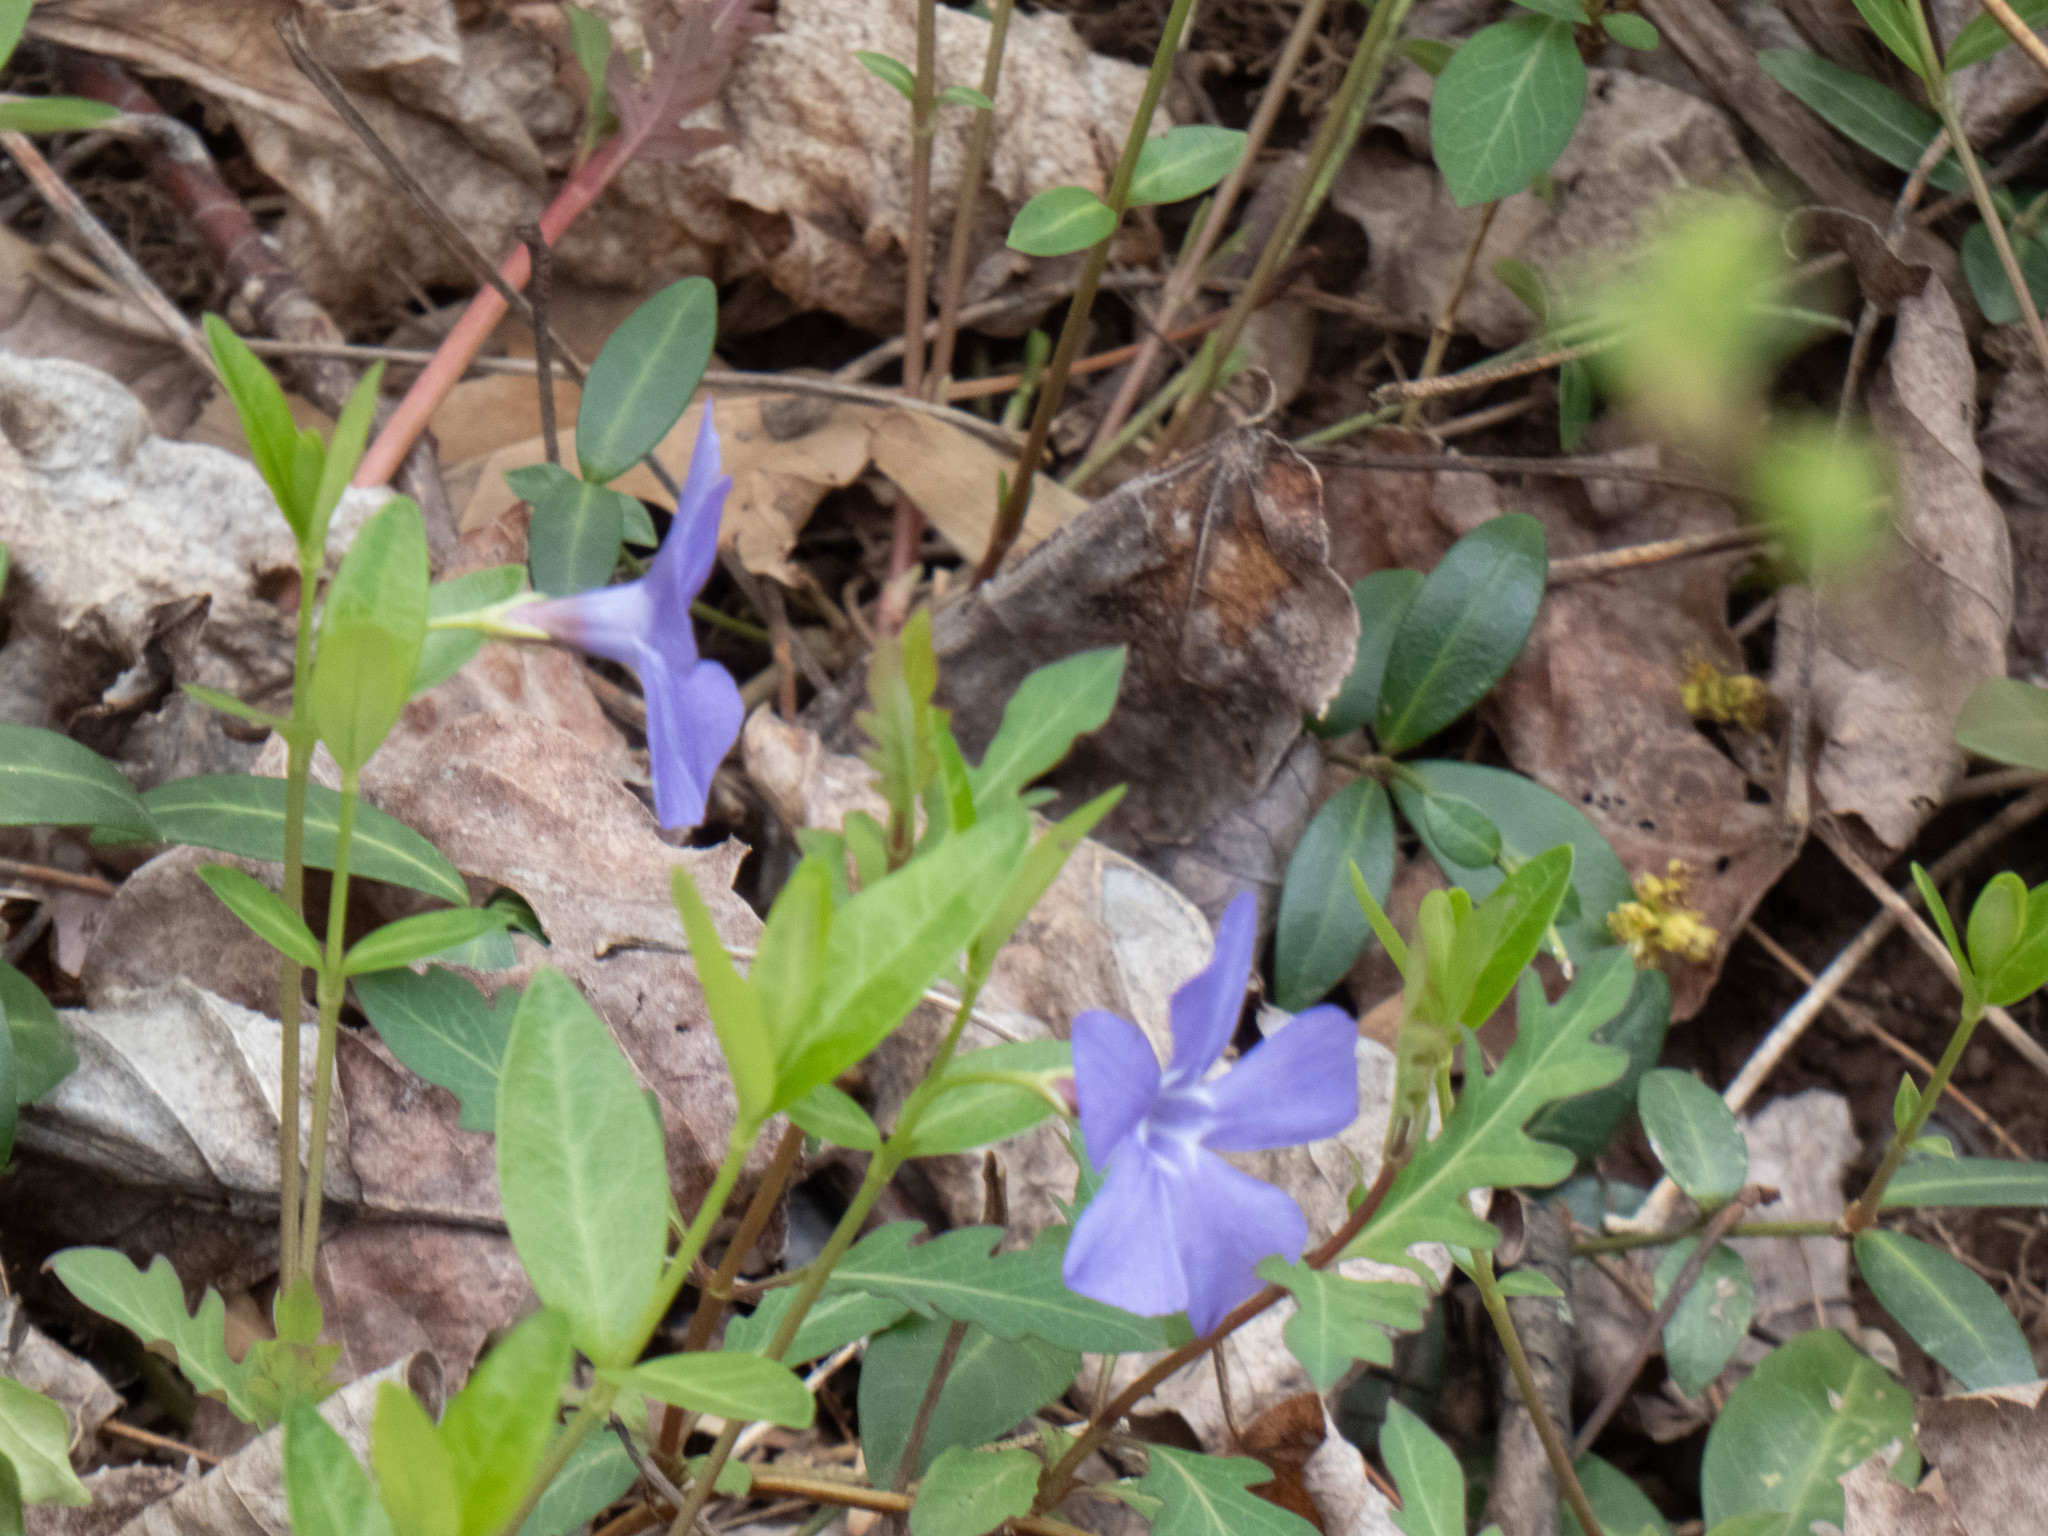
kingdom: Plantae
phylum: Tracheophyta
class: Magnoliopsida
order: Gentianales
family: Apocynaceae
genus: Vinca
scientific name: Vinca minor
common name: Lesser periwinkle
